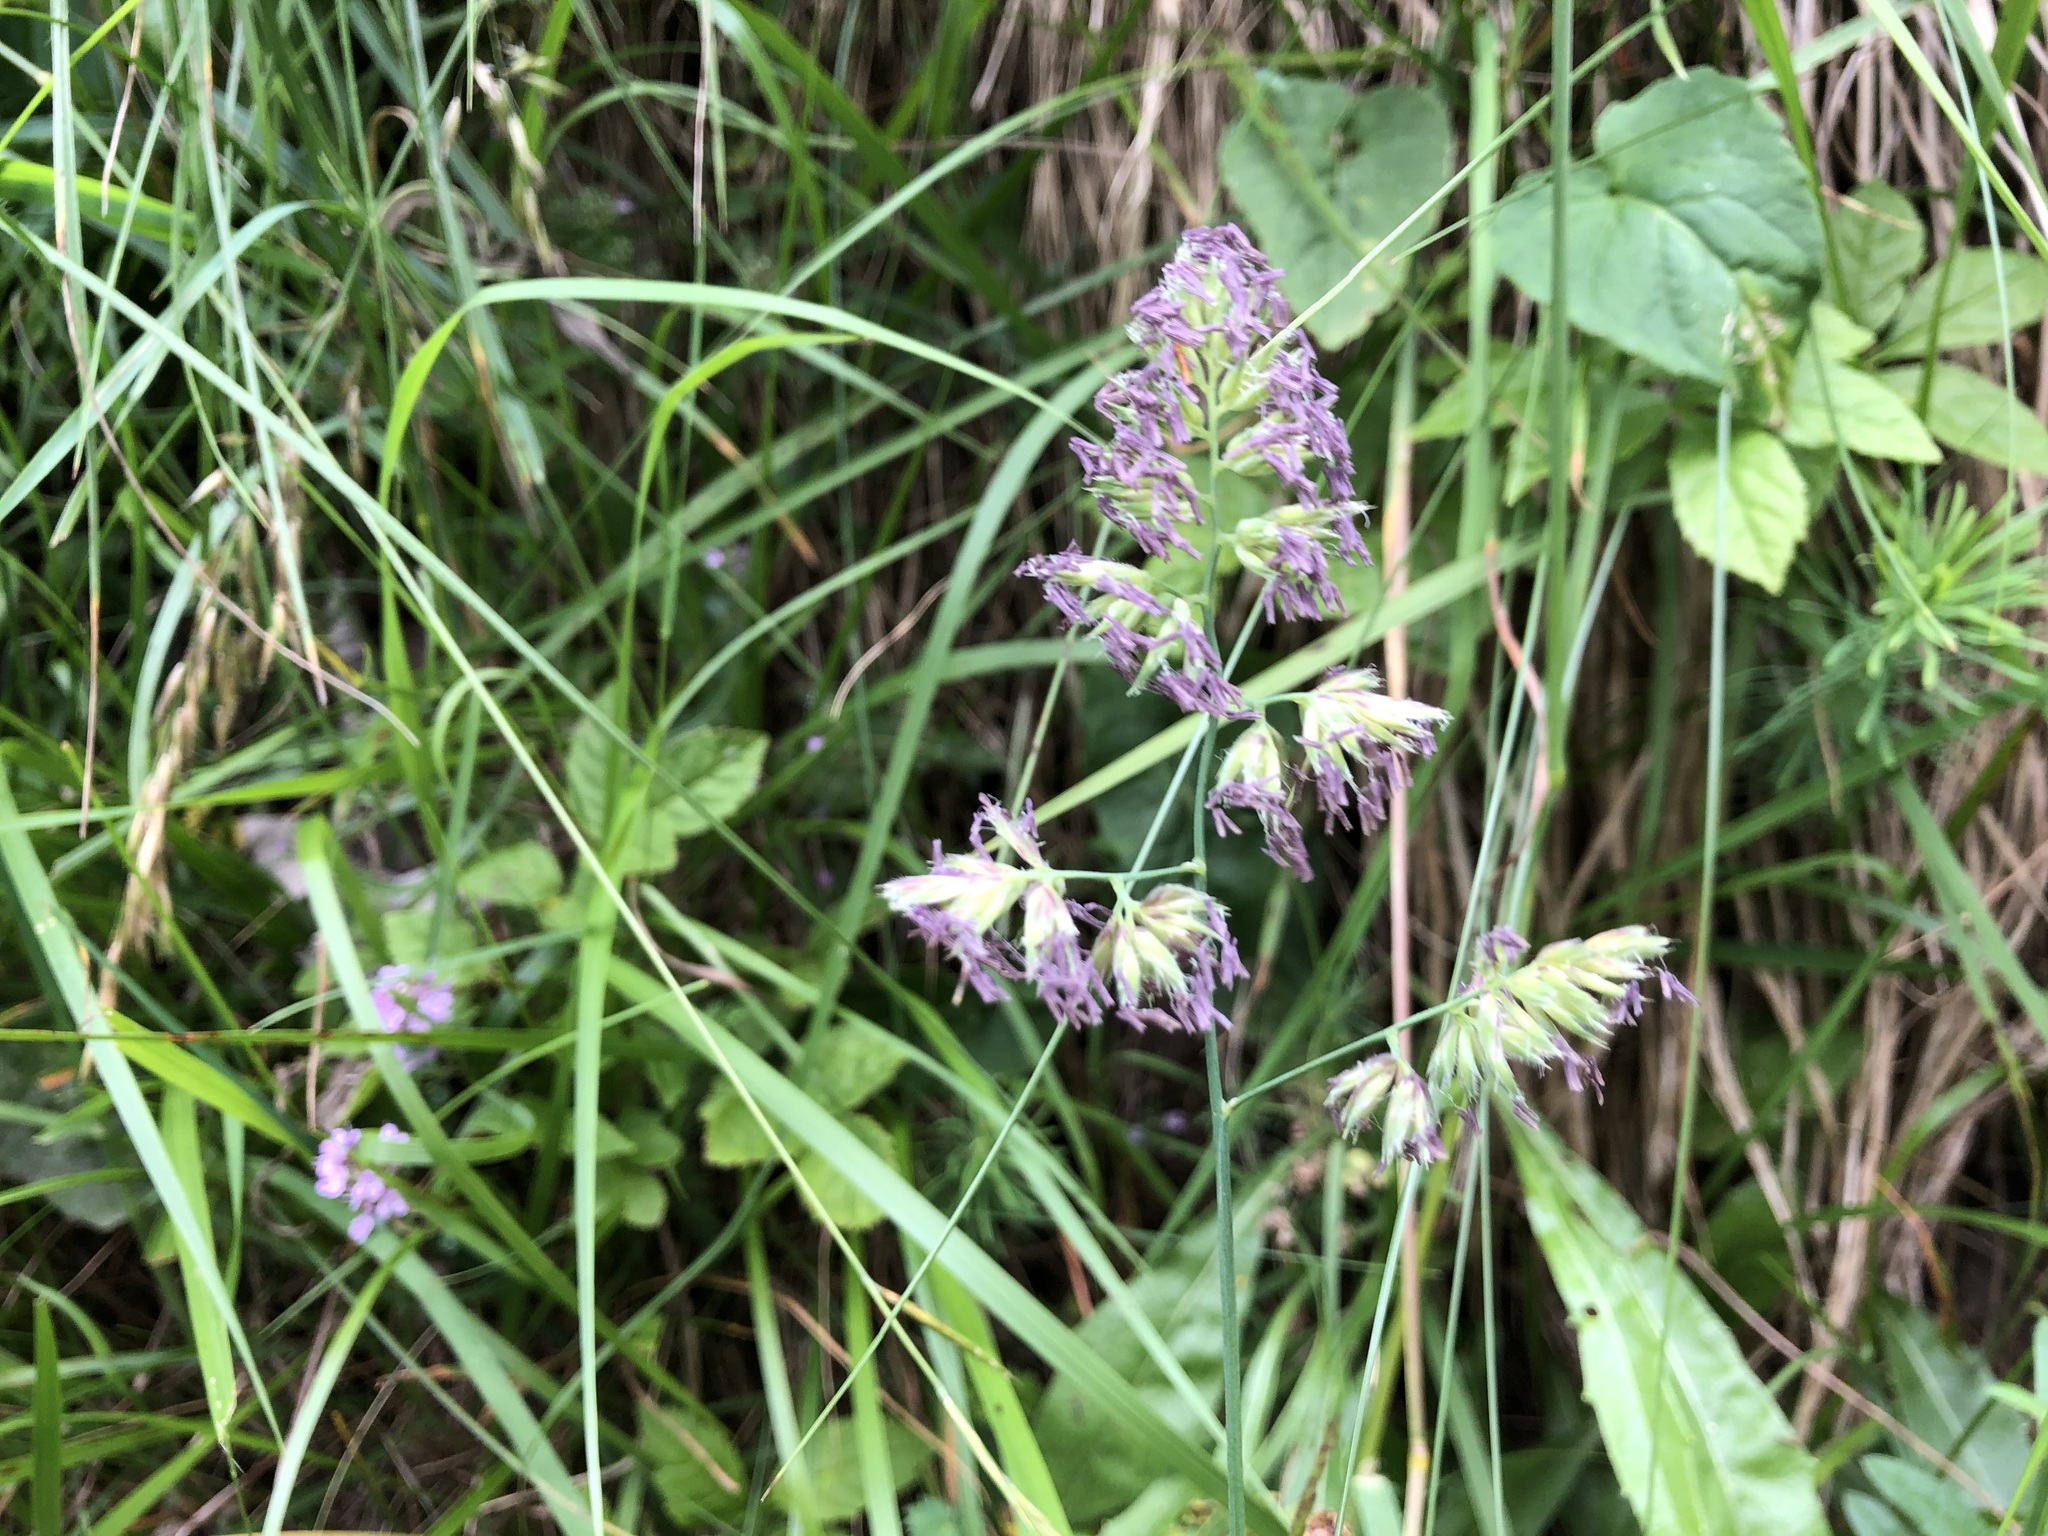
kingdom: Plantae
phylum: Tracheophyta
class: Liliopsida
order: Poales
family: Poaceae
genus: Dactylis
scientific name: Dactylis glomerata
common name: Orchardgrass
